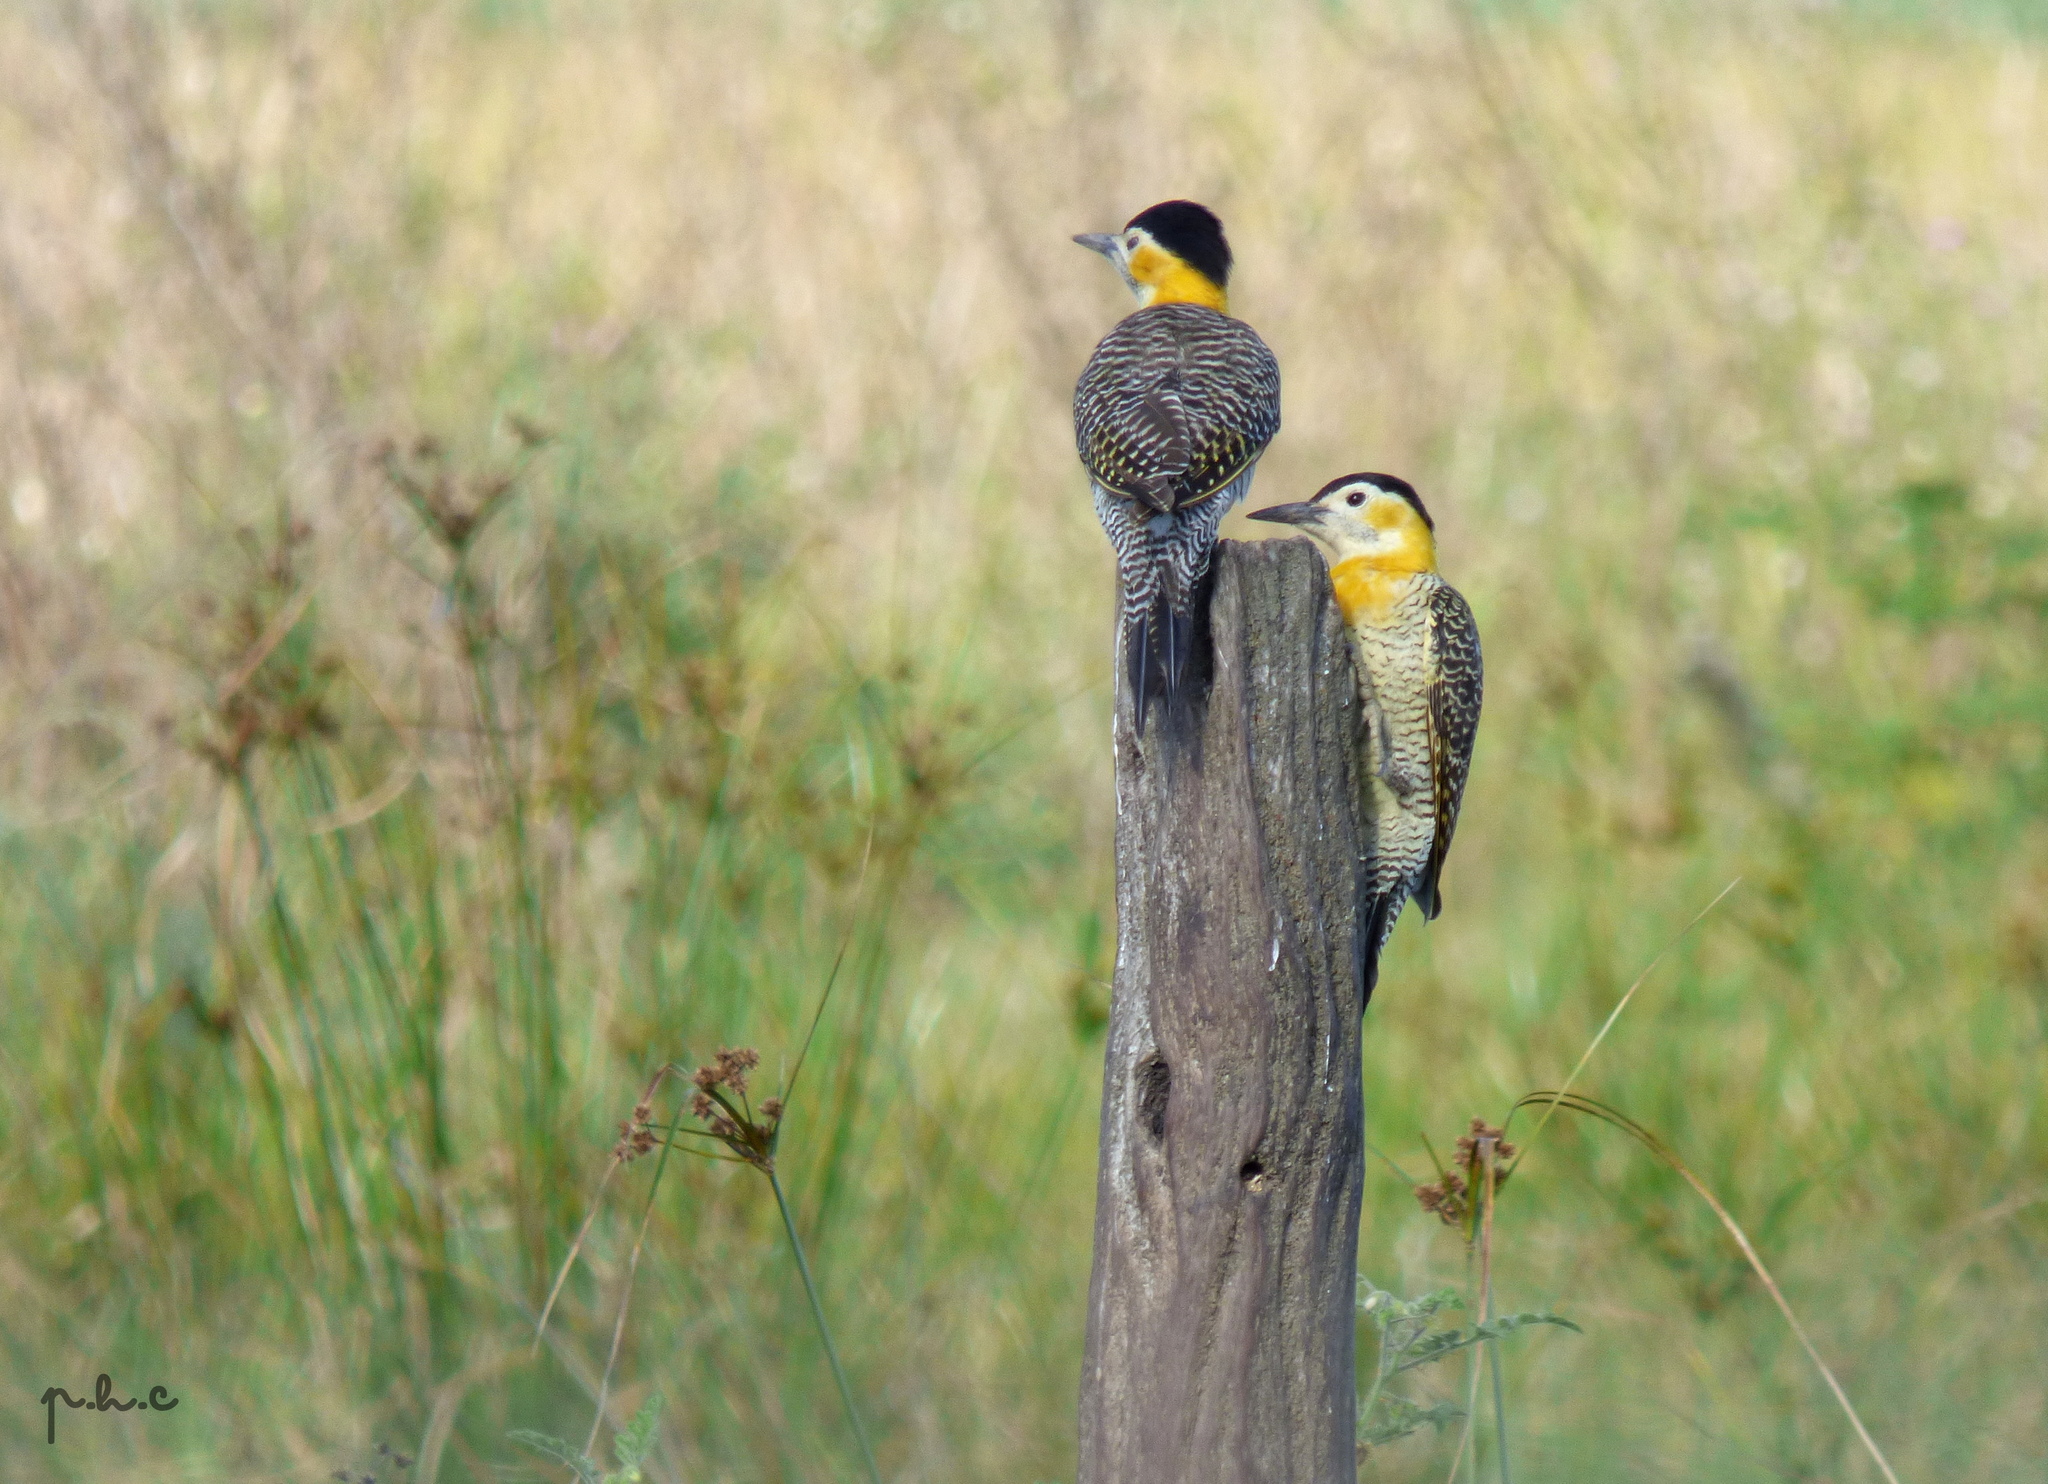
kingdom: Animalia
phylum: Chordata
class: Aves
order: Piciformes
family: Picidae
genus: Colaptes
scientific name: Colaptes campestris
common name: Campo flicker
